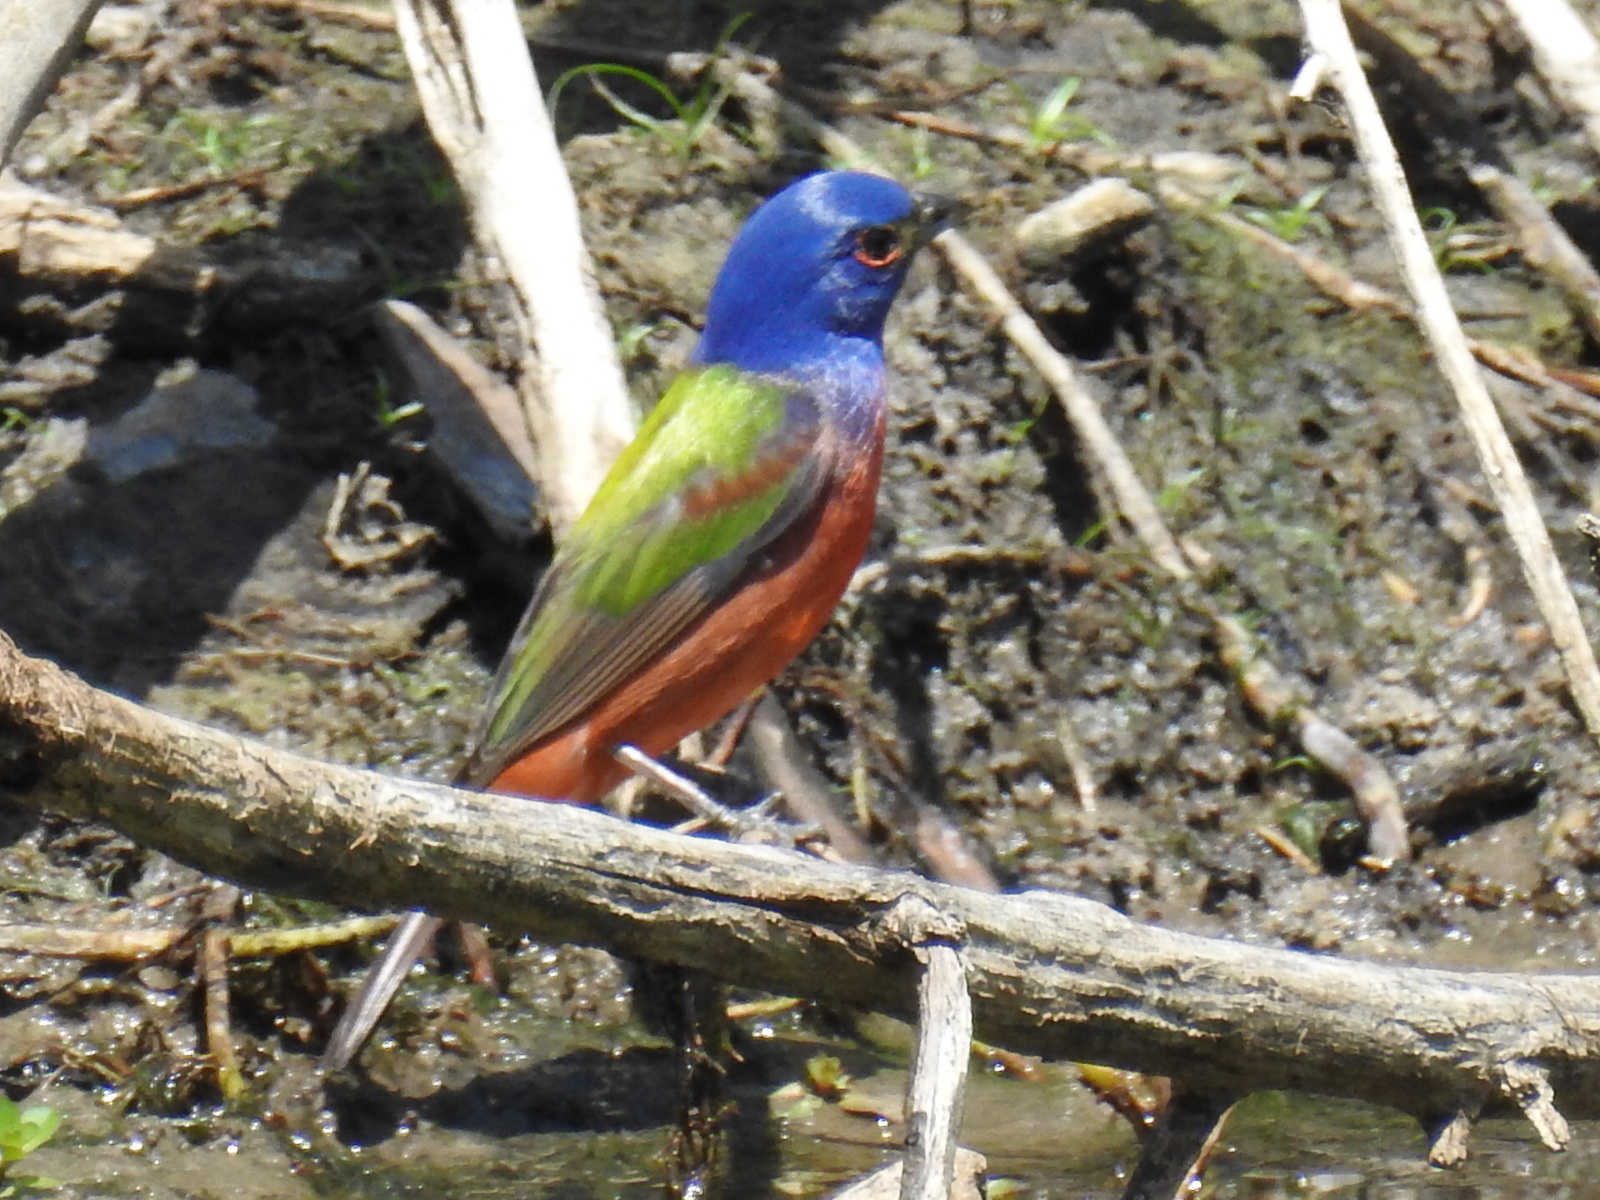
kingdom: Animalia
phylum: Chordata
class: Aves
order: Passeriformes
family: Cardinalidae
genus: Passerina
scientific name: Passerina ciris
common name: Painted bunting
